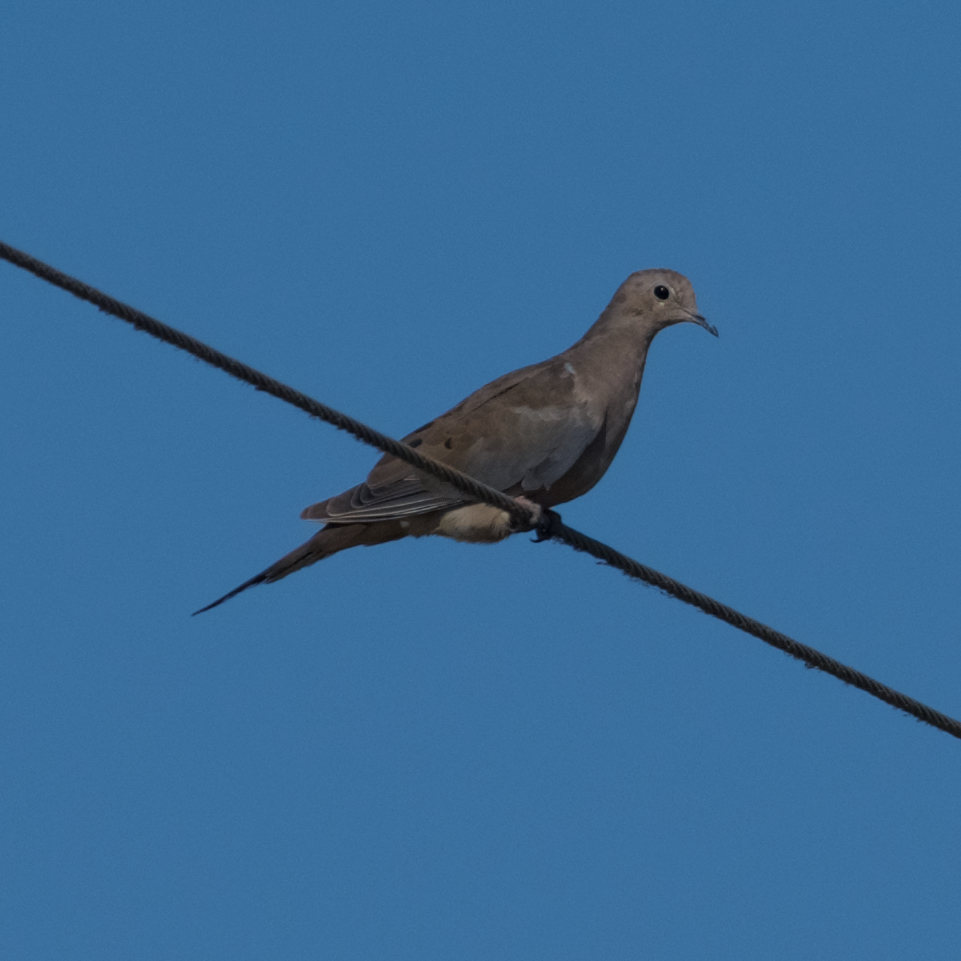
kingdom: Animalia
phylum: Chordata
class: Aves
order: Columbiformes
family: Columbidae
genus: Zenaida
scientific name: Zenaida macroura
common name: Mourning dove
